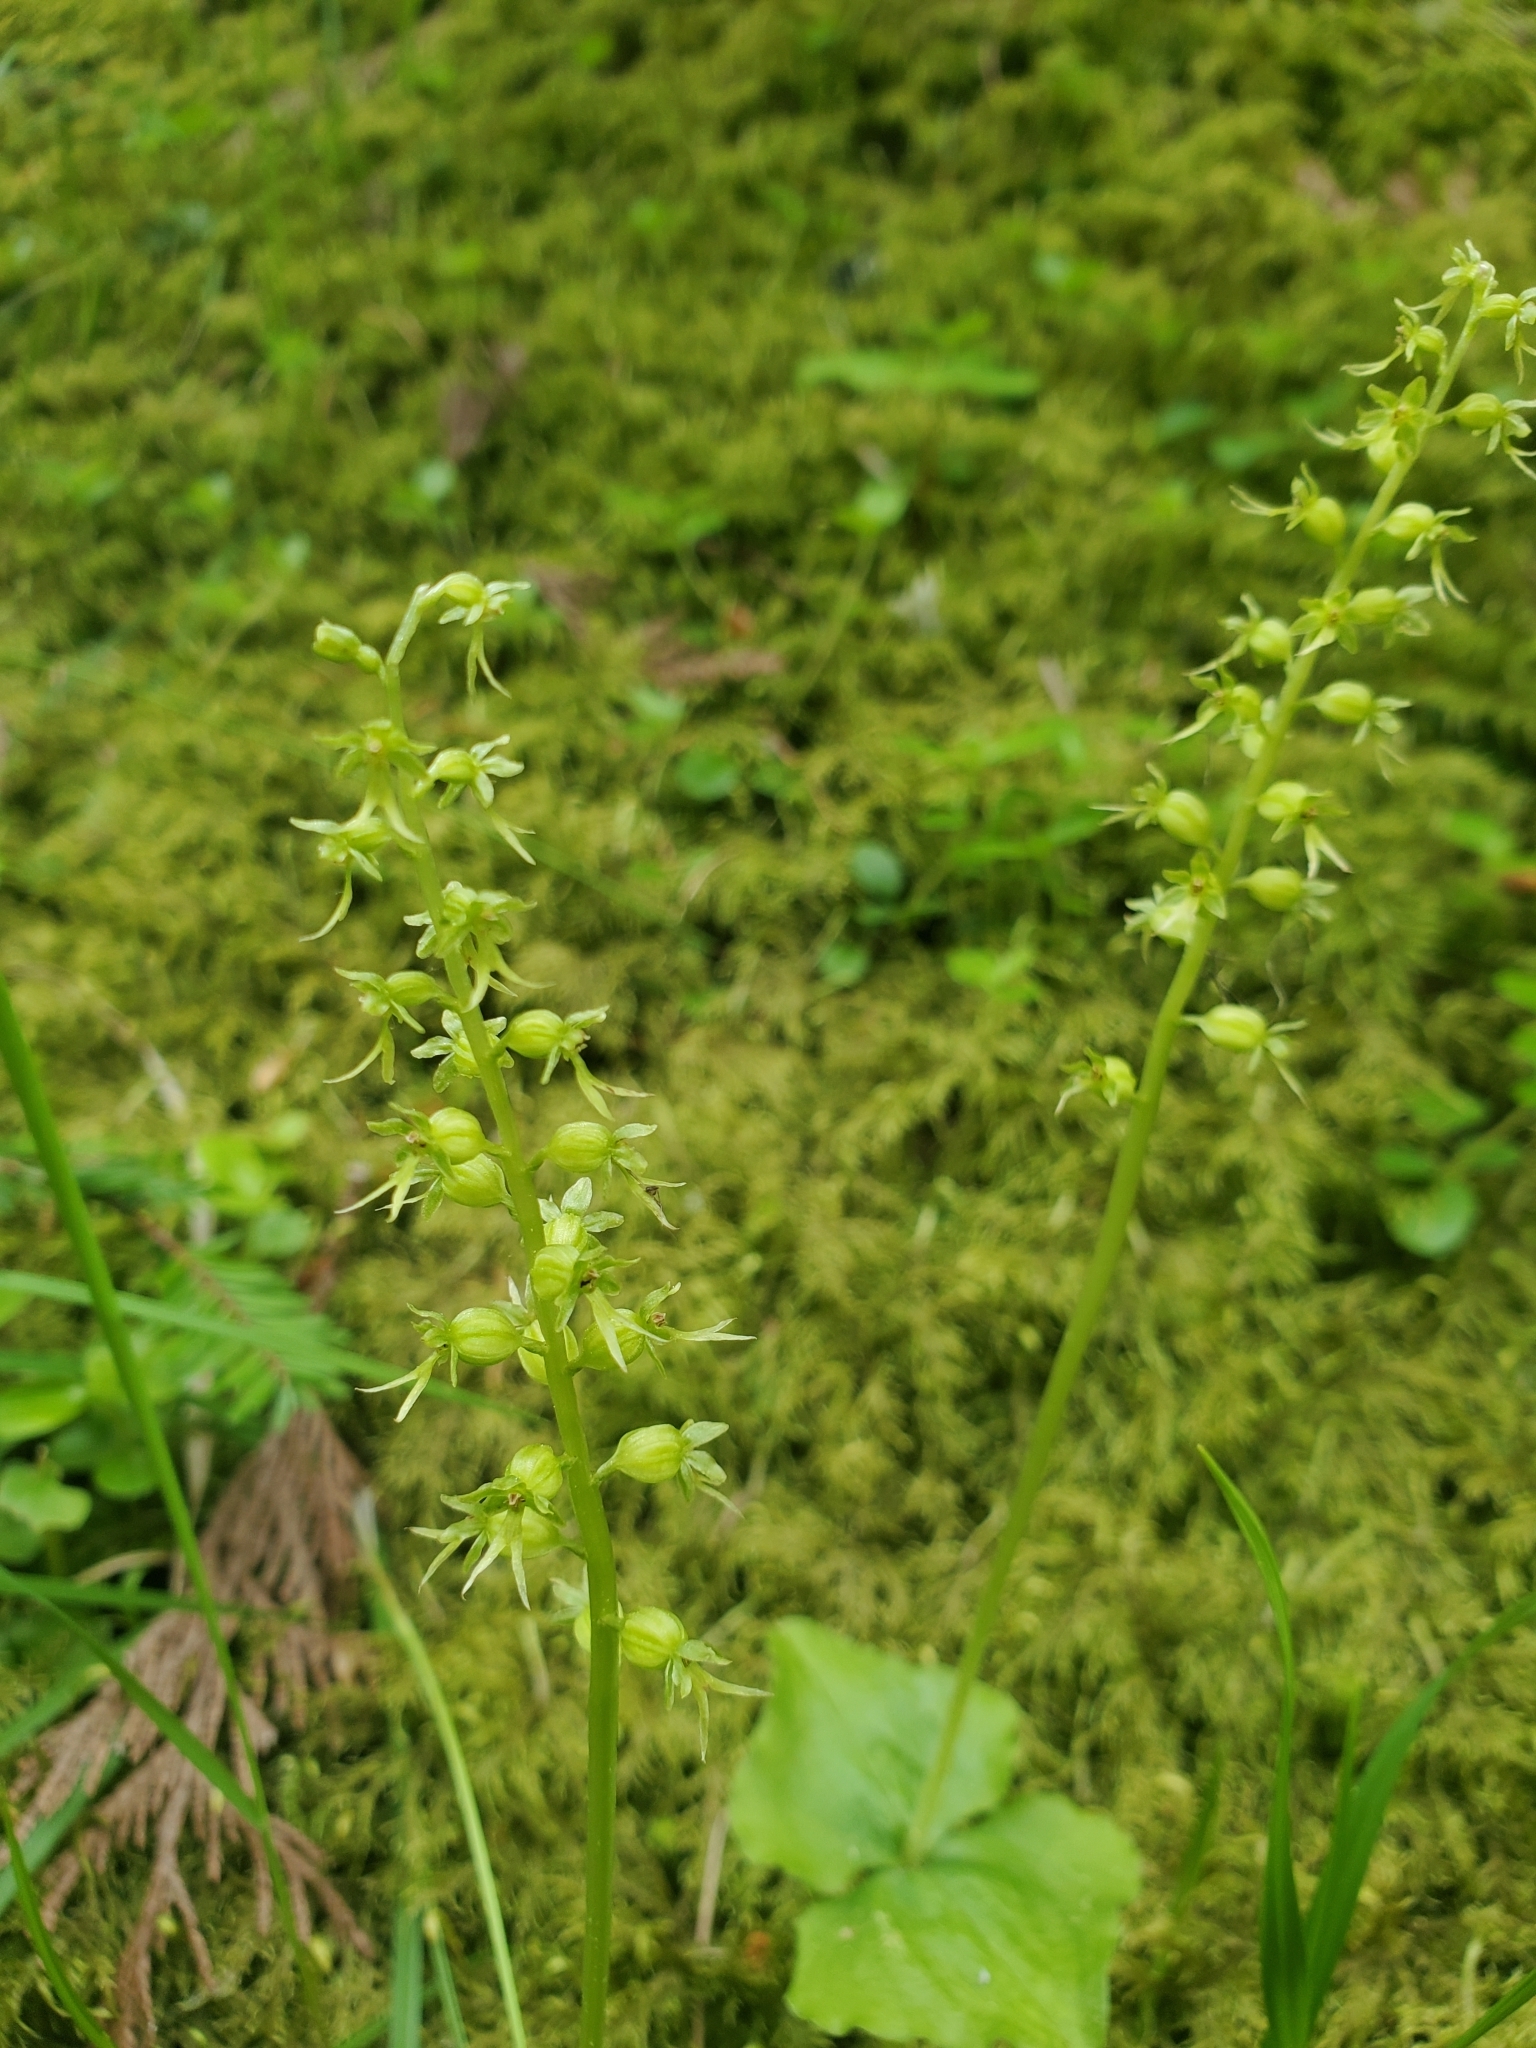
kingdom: Plantae
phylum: Tracheophyta
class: Liliopsida
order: Asparagales
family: Orchidaceae
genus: Neottia
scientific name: Neottia cordata
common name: Lesser twayblade
